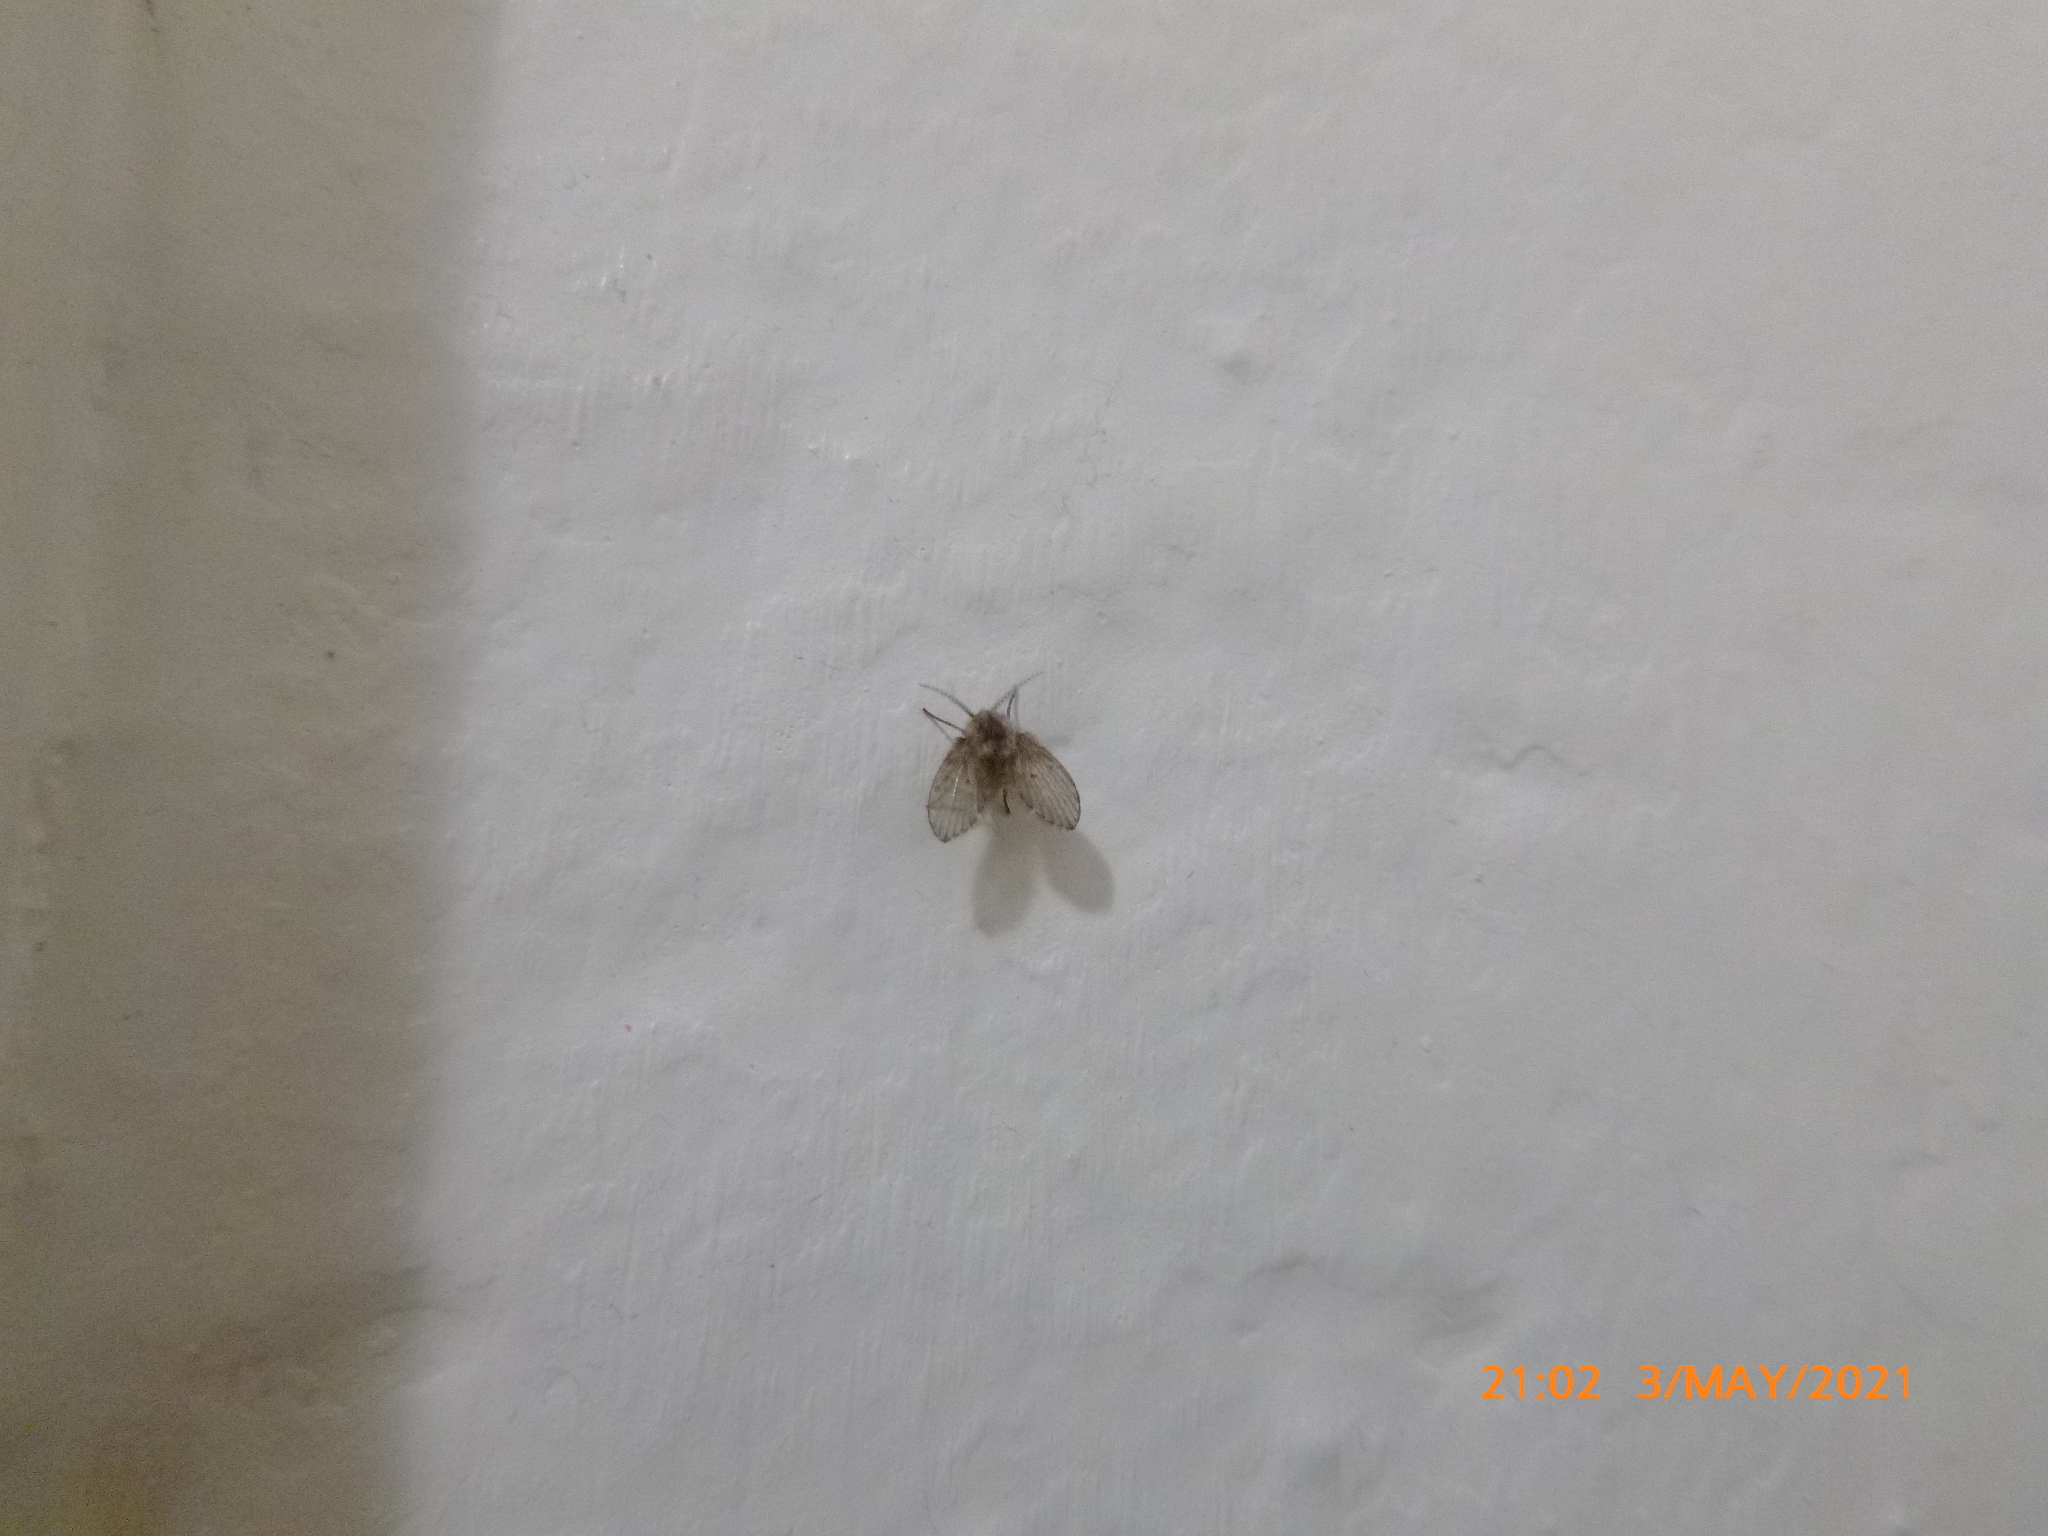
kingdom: Animalia
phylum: Arthropoda
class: Insecta
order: Diptera
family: Psychodidae
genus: Clogmia
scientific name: Clogmia albipunctatus
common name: White-spotted moth fly
